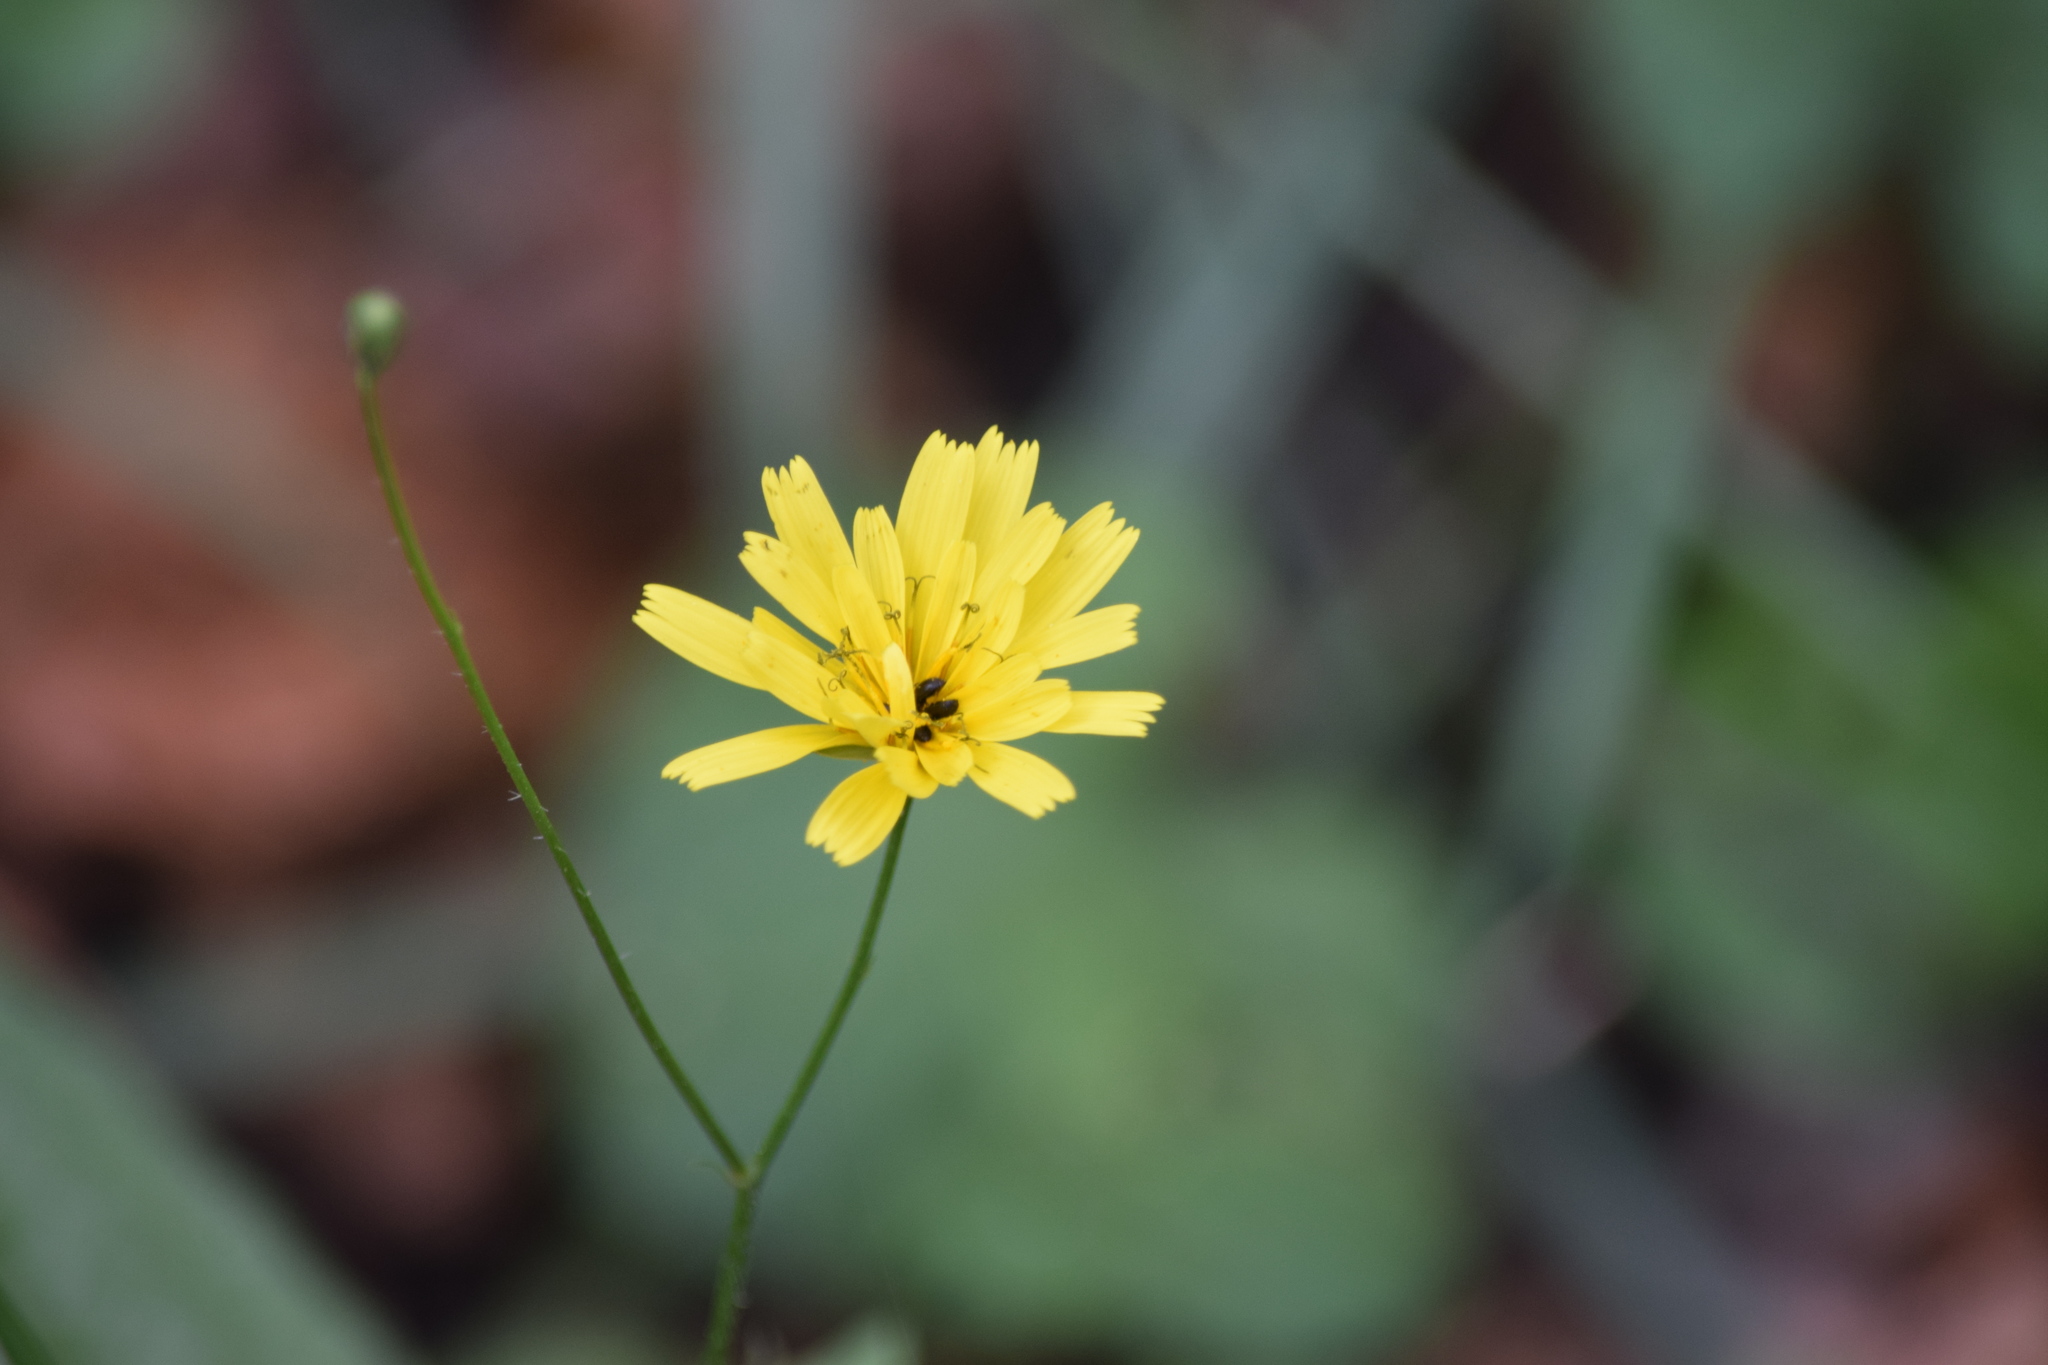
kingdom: Plantae
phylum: Tracheophyta
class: Magnoliopsida
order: Asterales
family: Asteraceae
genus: Lapsana
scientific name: Lapsana communis
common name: Nipplewort
